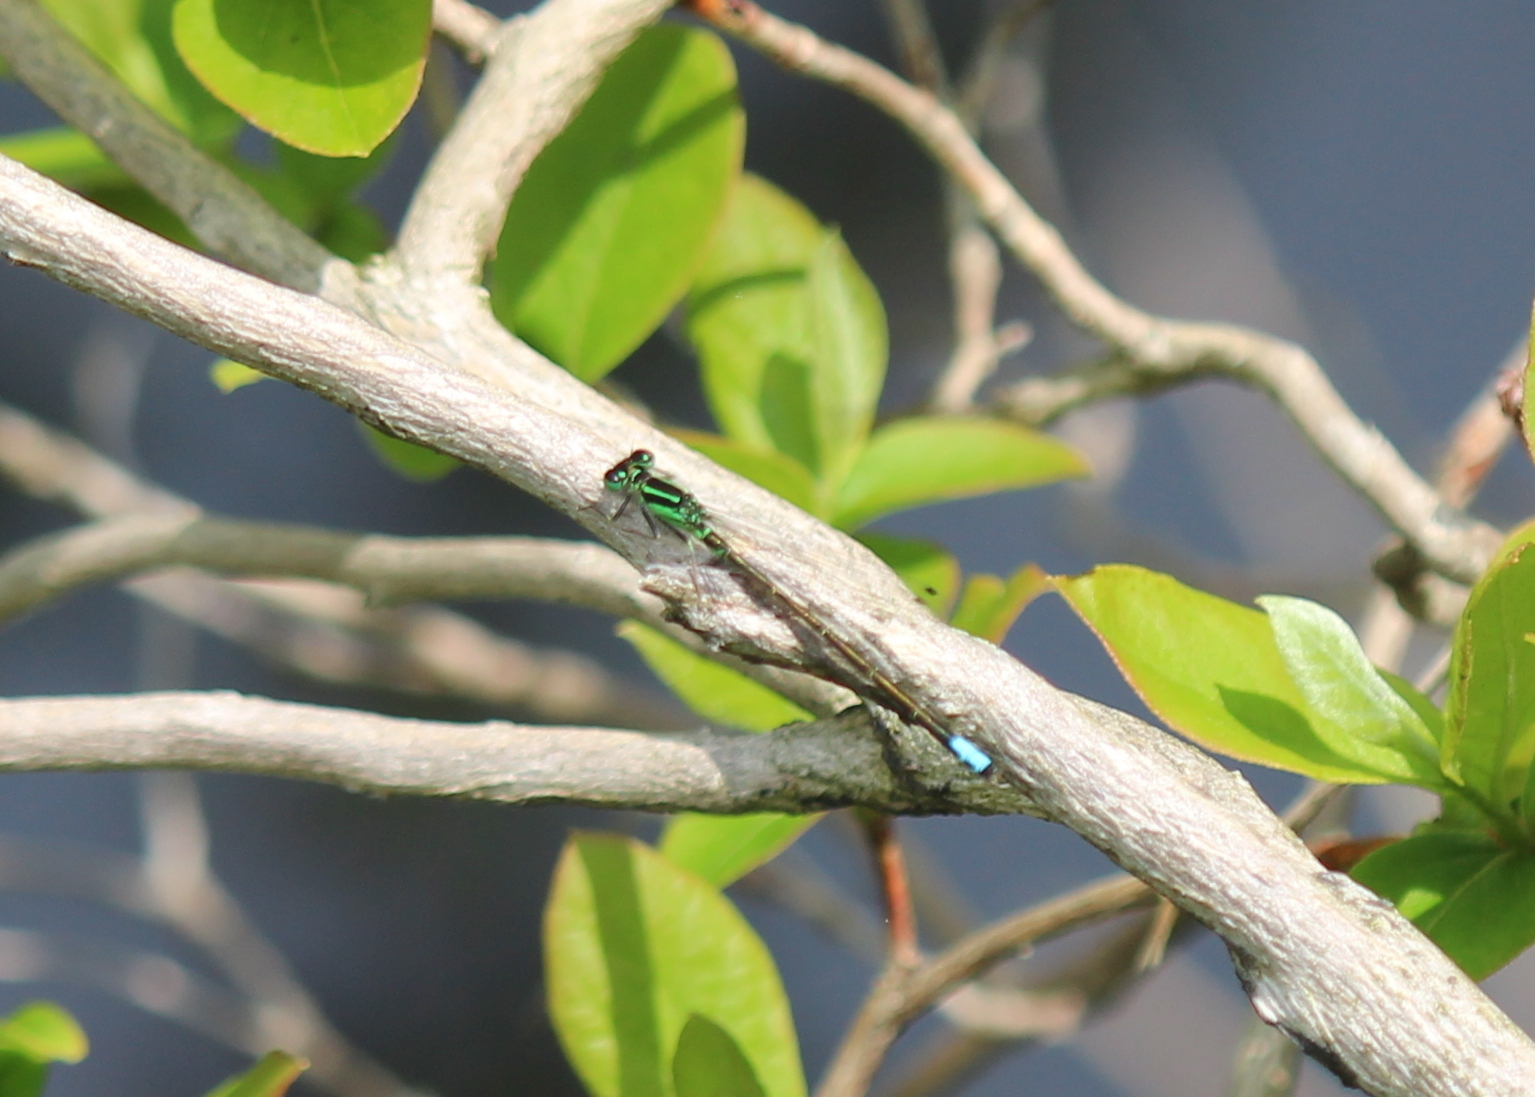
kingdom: Animalia
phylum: Arthropoda
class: Insecta
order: Odonata
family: Coenagrionidae
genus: Ischnura
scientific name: Ischnura verticalis
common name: Eastern forktail
